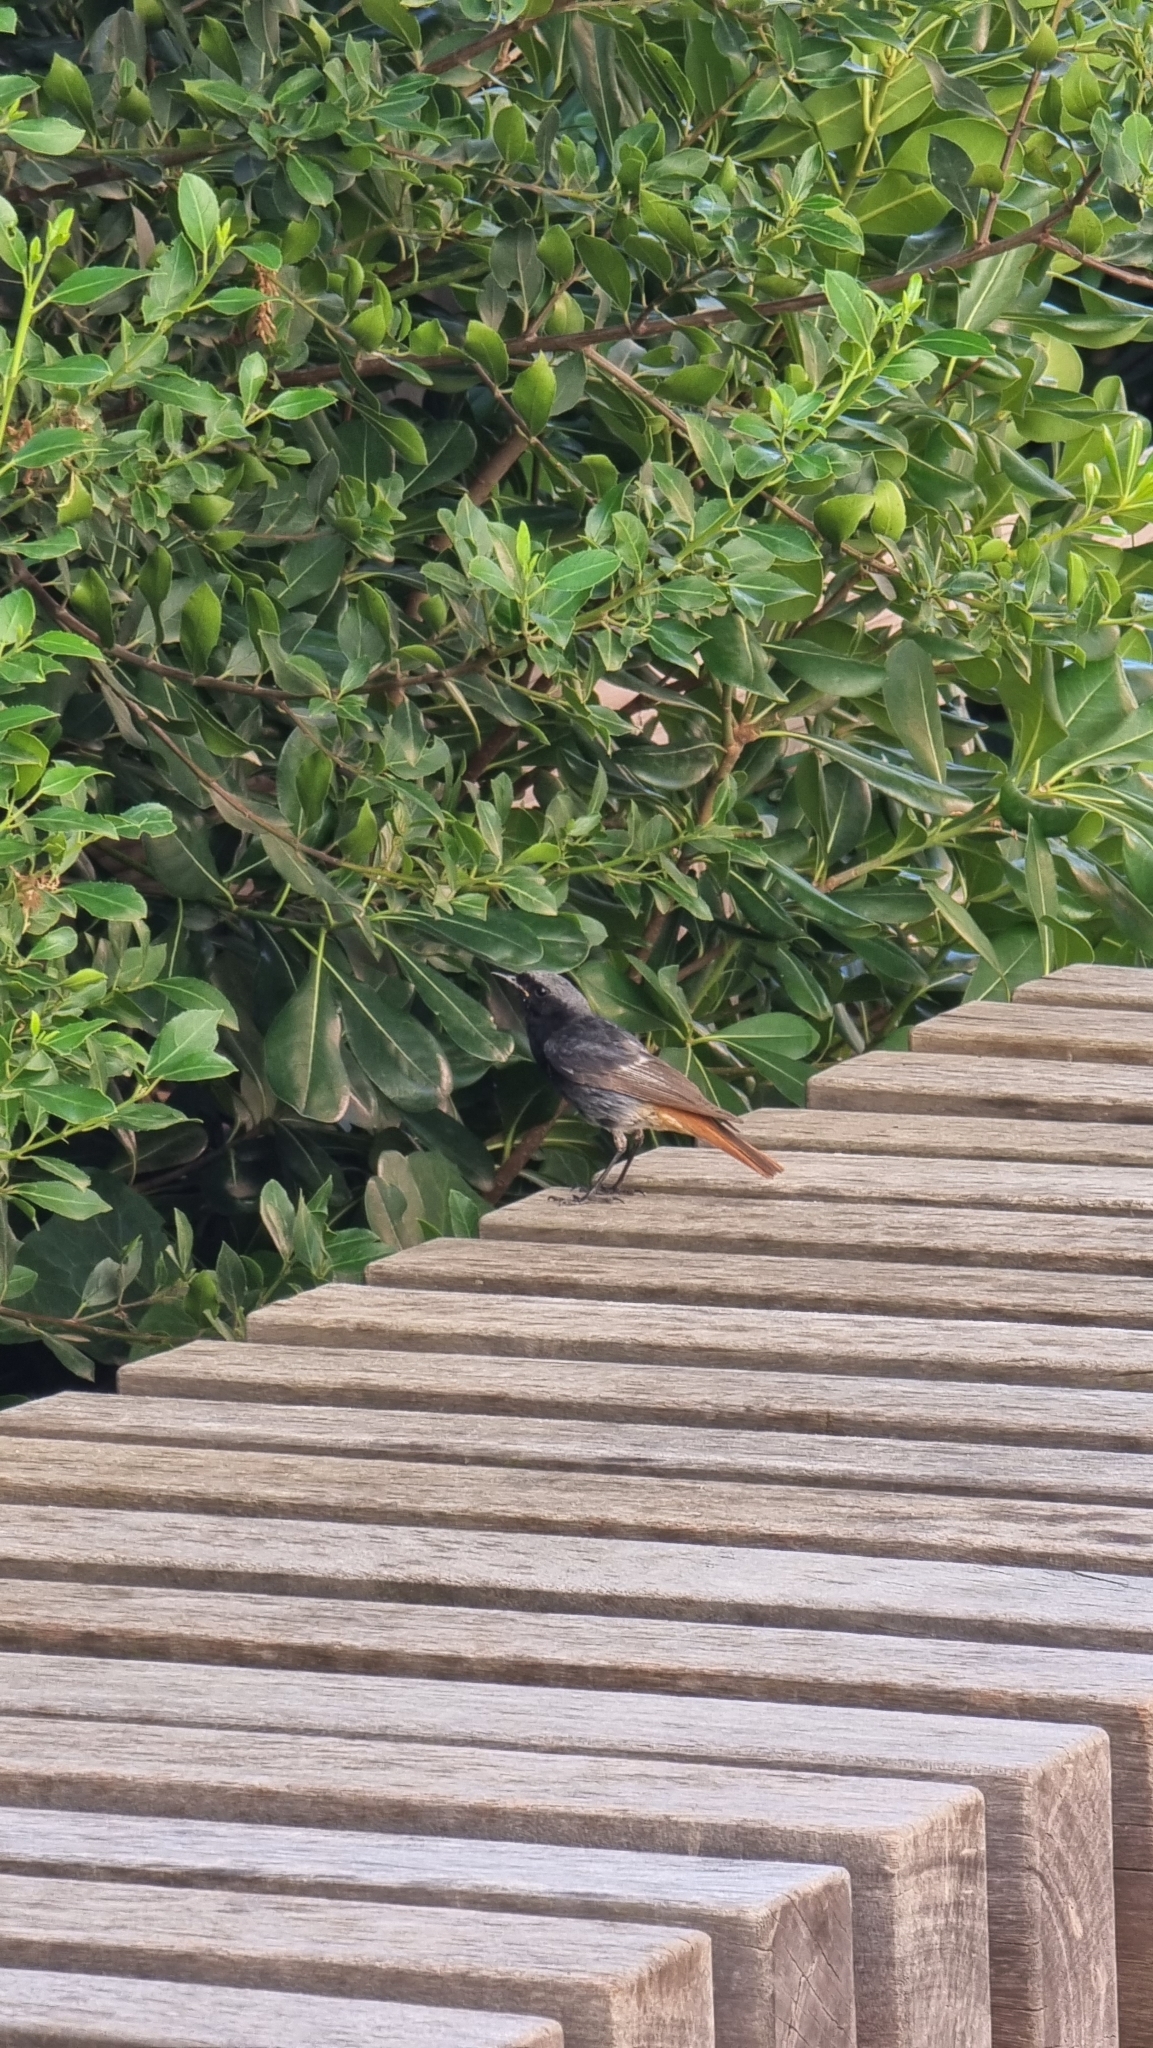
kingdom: Animalia
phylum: Chordata
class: Aves
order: Passeriformes
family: Muscicapidae
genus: Phoenicurus
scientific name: Phoenicurus ochruros
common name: Black redstart
